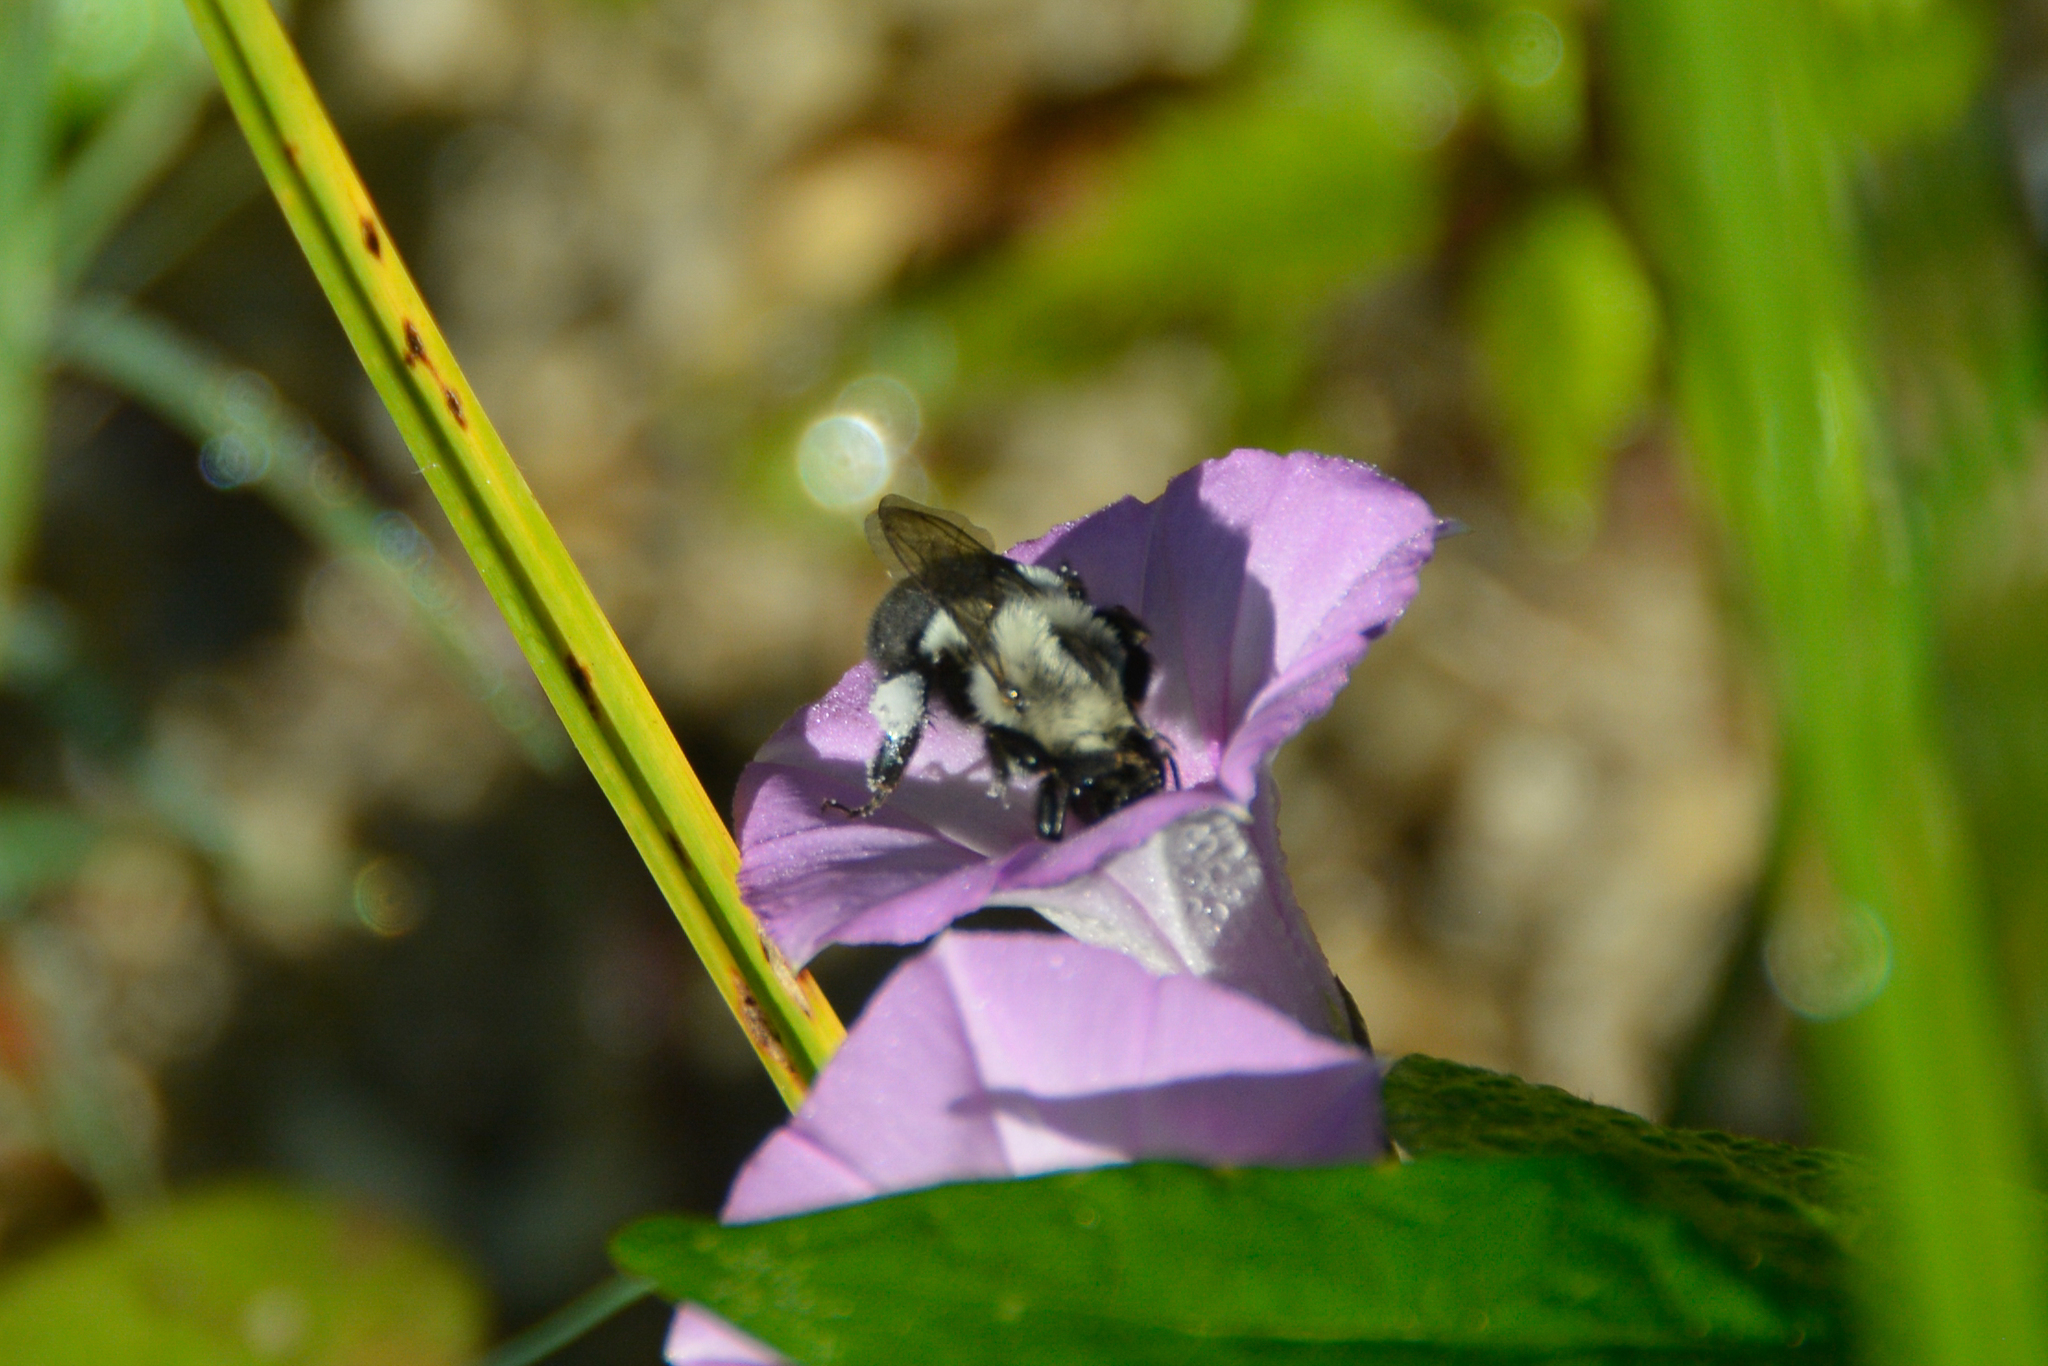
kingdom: Animalia
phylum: Arthropoda
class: Insecta
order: Hymenoptera
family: Apidae
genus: Bombus
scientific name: Bombus impatiens
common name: Common eastern bumble bee
